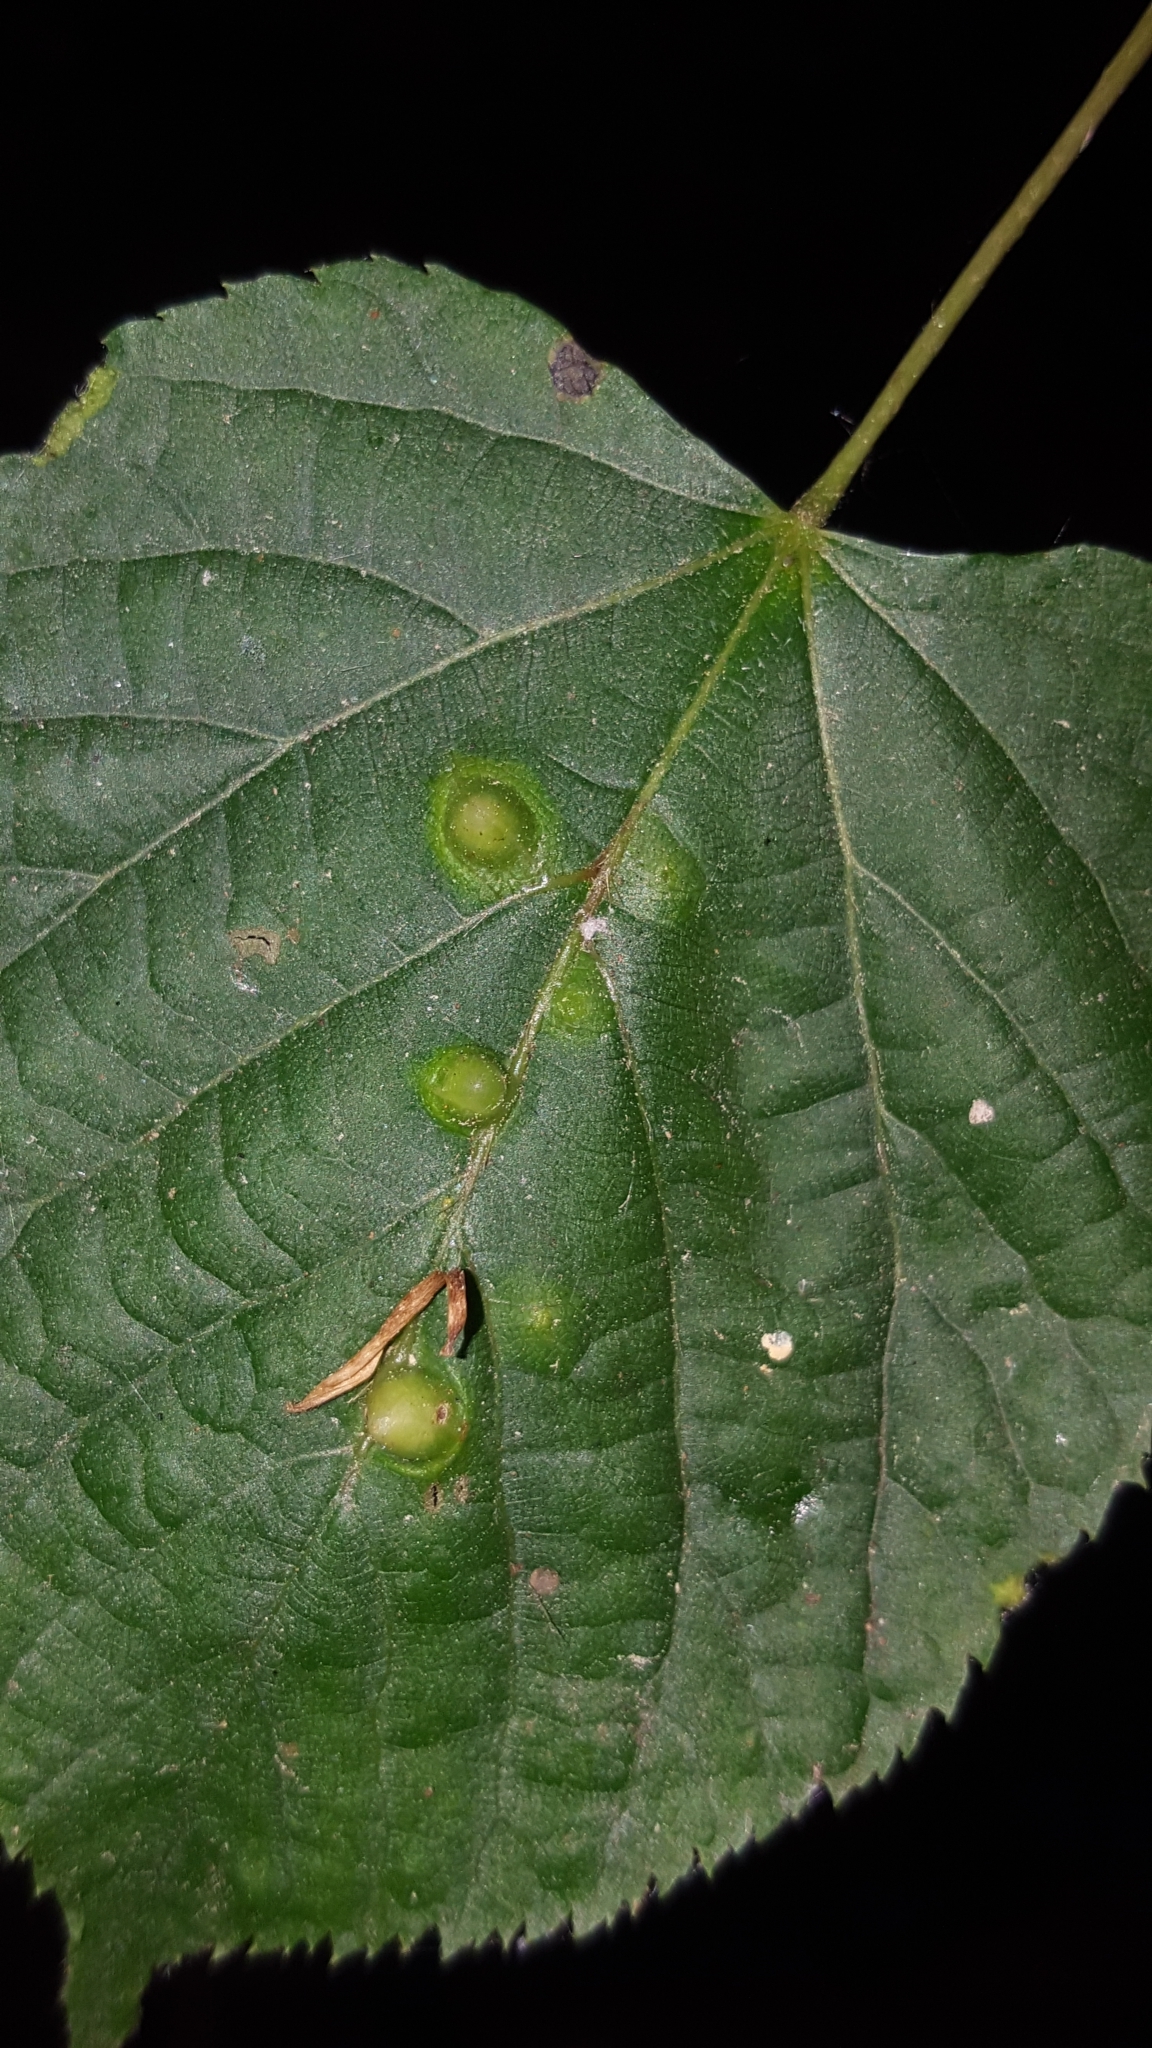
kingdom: Animalia
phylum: Arthropoda
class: Insecta
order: Diptera
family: Cecidomyiidae
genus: Didymomyia
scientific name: Didymomyia tiliacea
